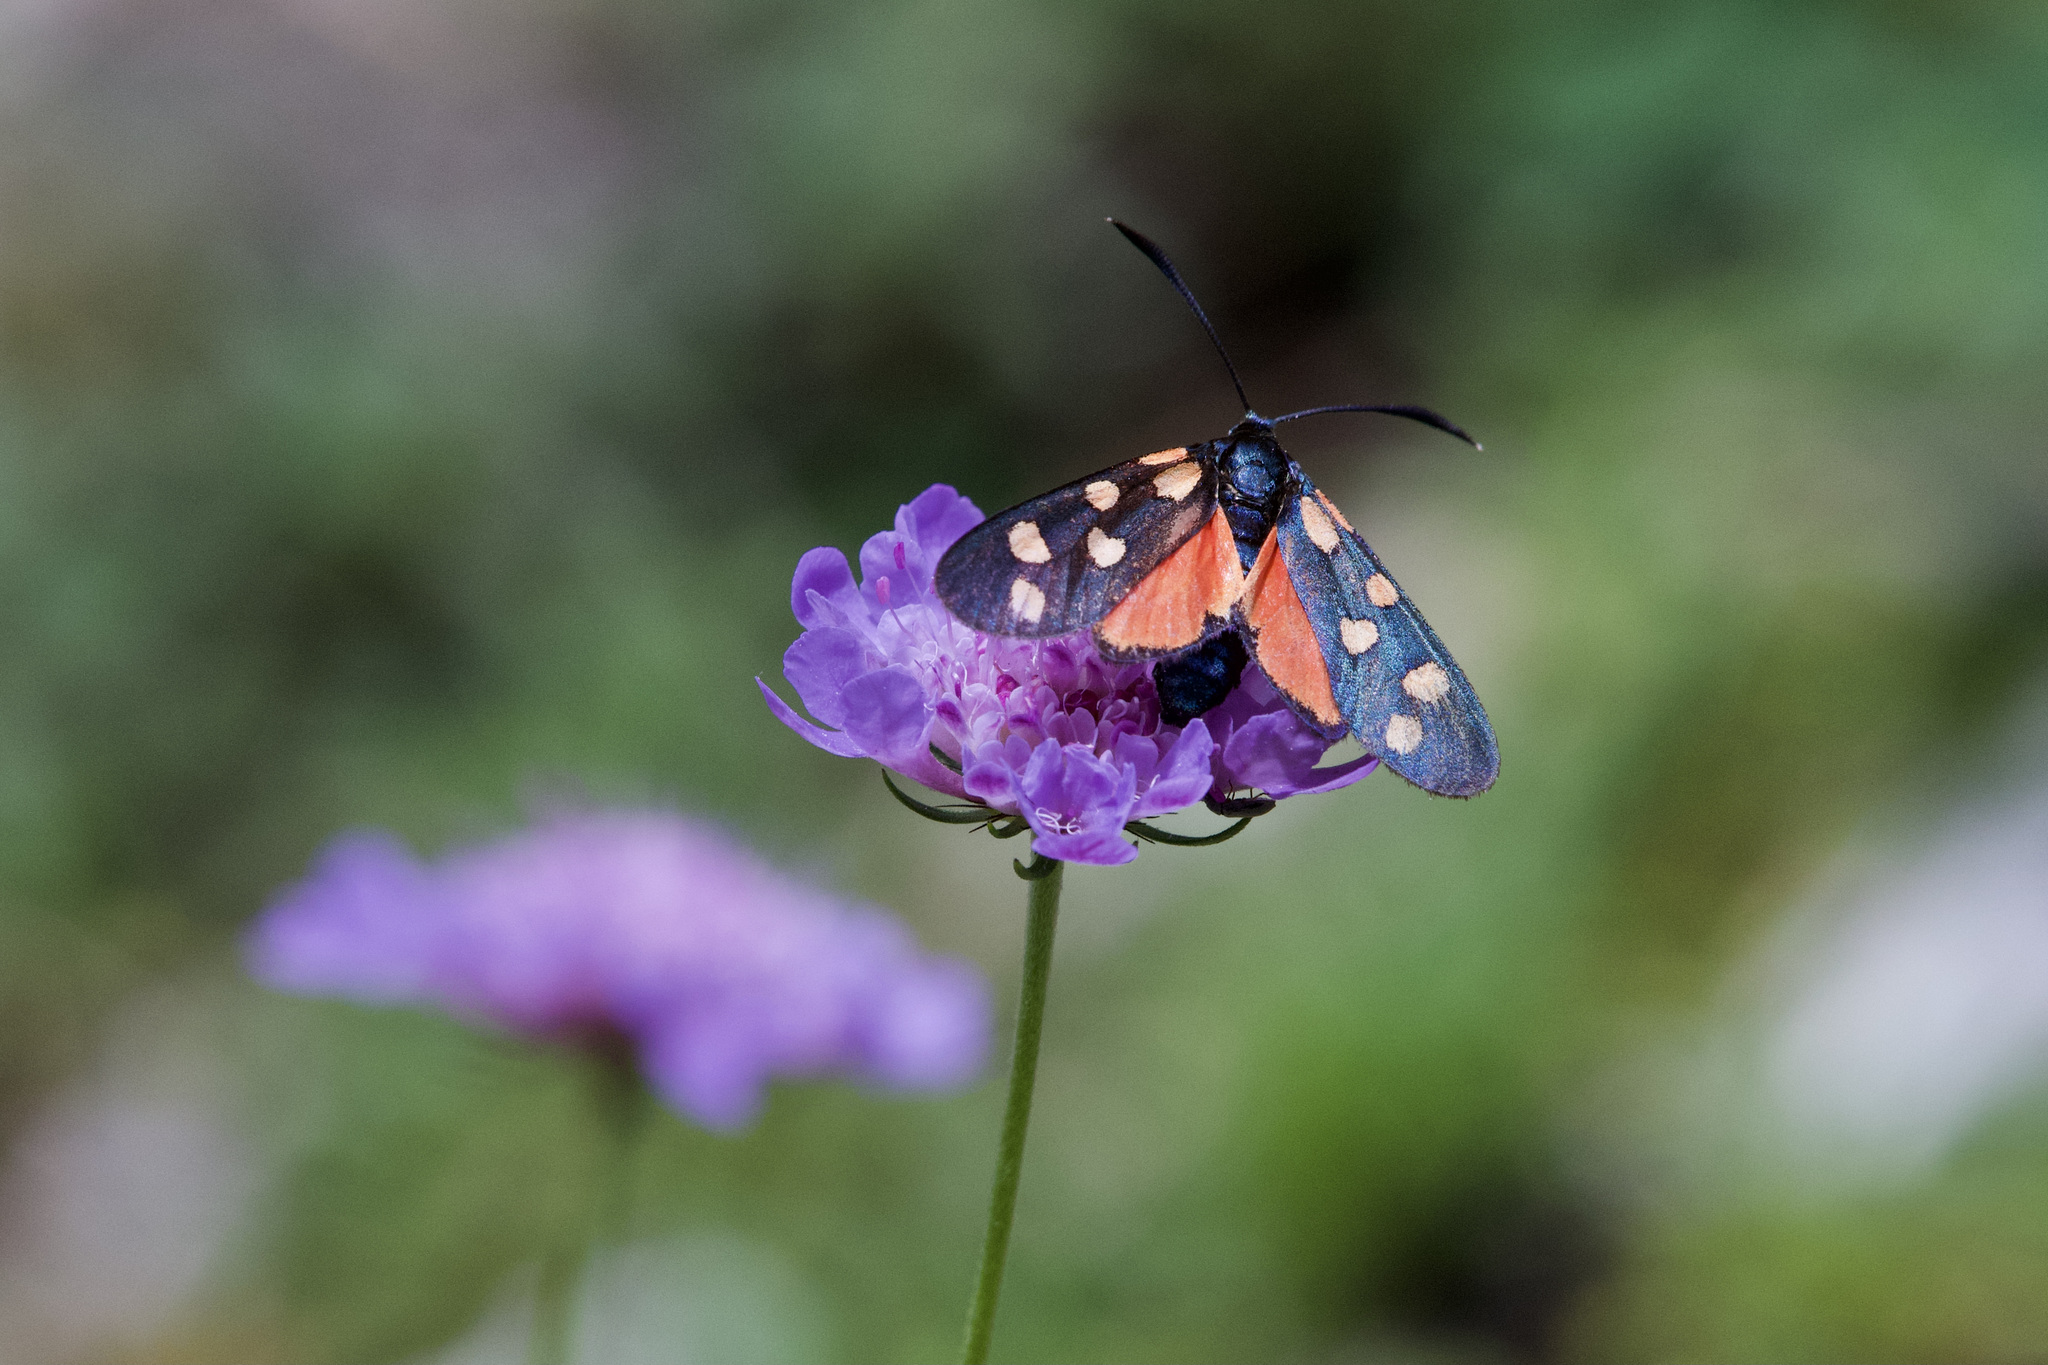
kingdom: Animalia
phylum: Arthropoda
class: Insecta
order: Lepidoptera
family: Zygaenidae
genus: Zygaena
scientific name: Zygaena transalpina
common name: Southern six spot burnet
